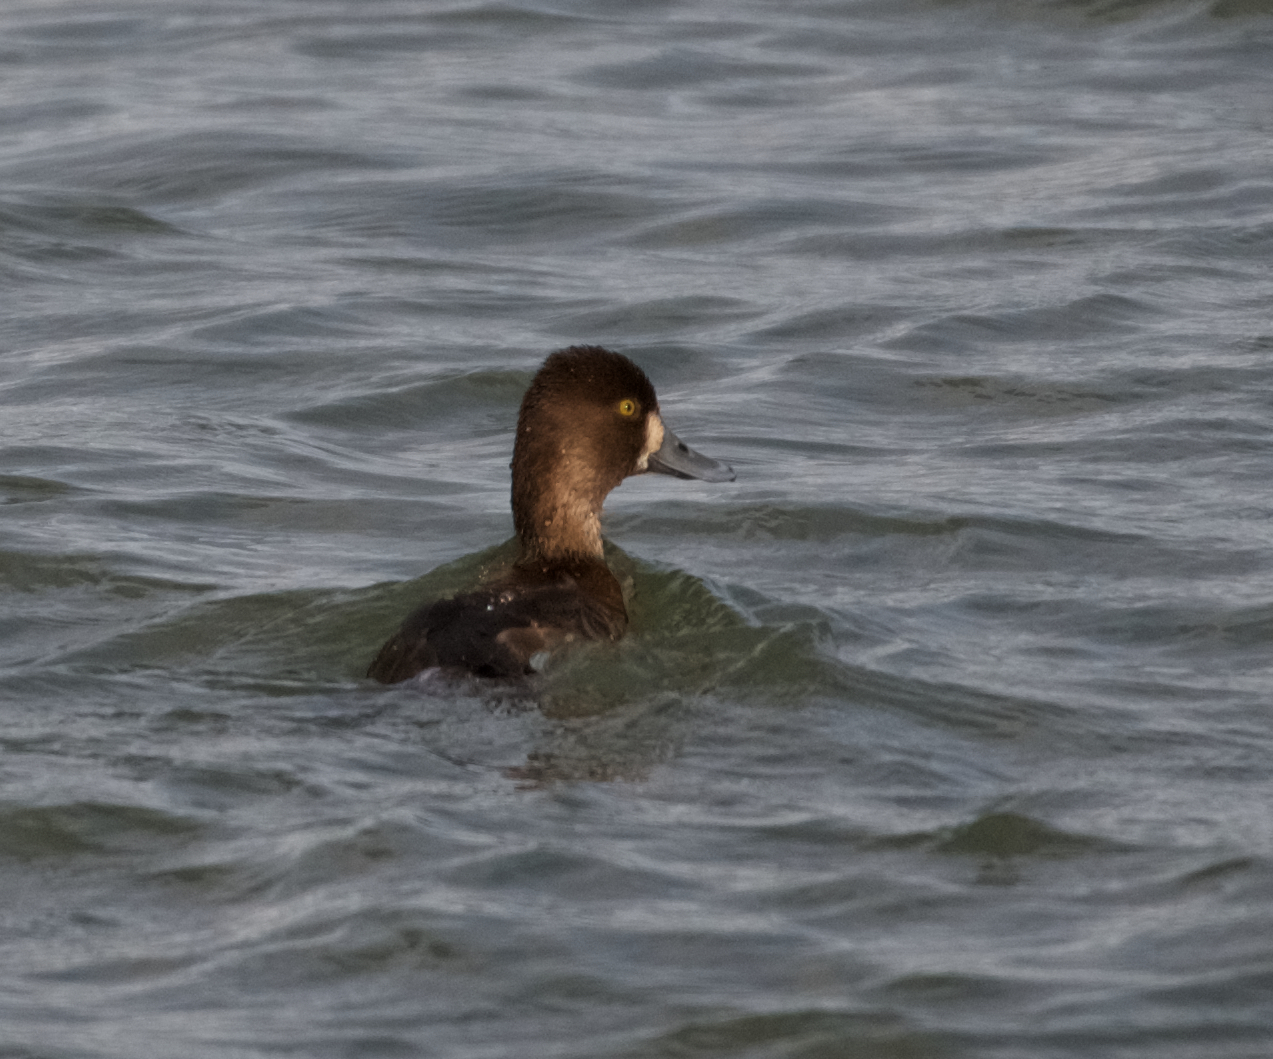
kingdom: Animalia
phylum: Chordata
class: Aves
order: Anseriformes
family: Anatidae
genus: Aythya
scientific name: Aythya affinis
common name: Lesser scaup
